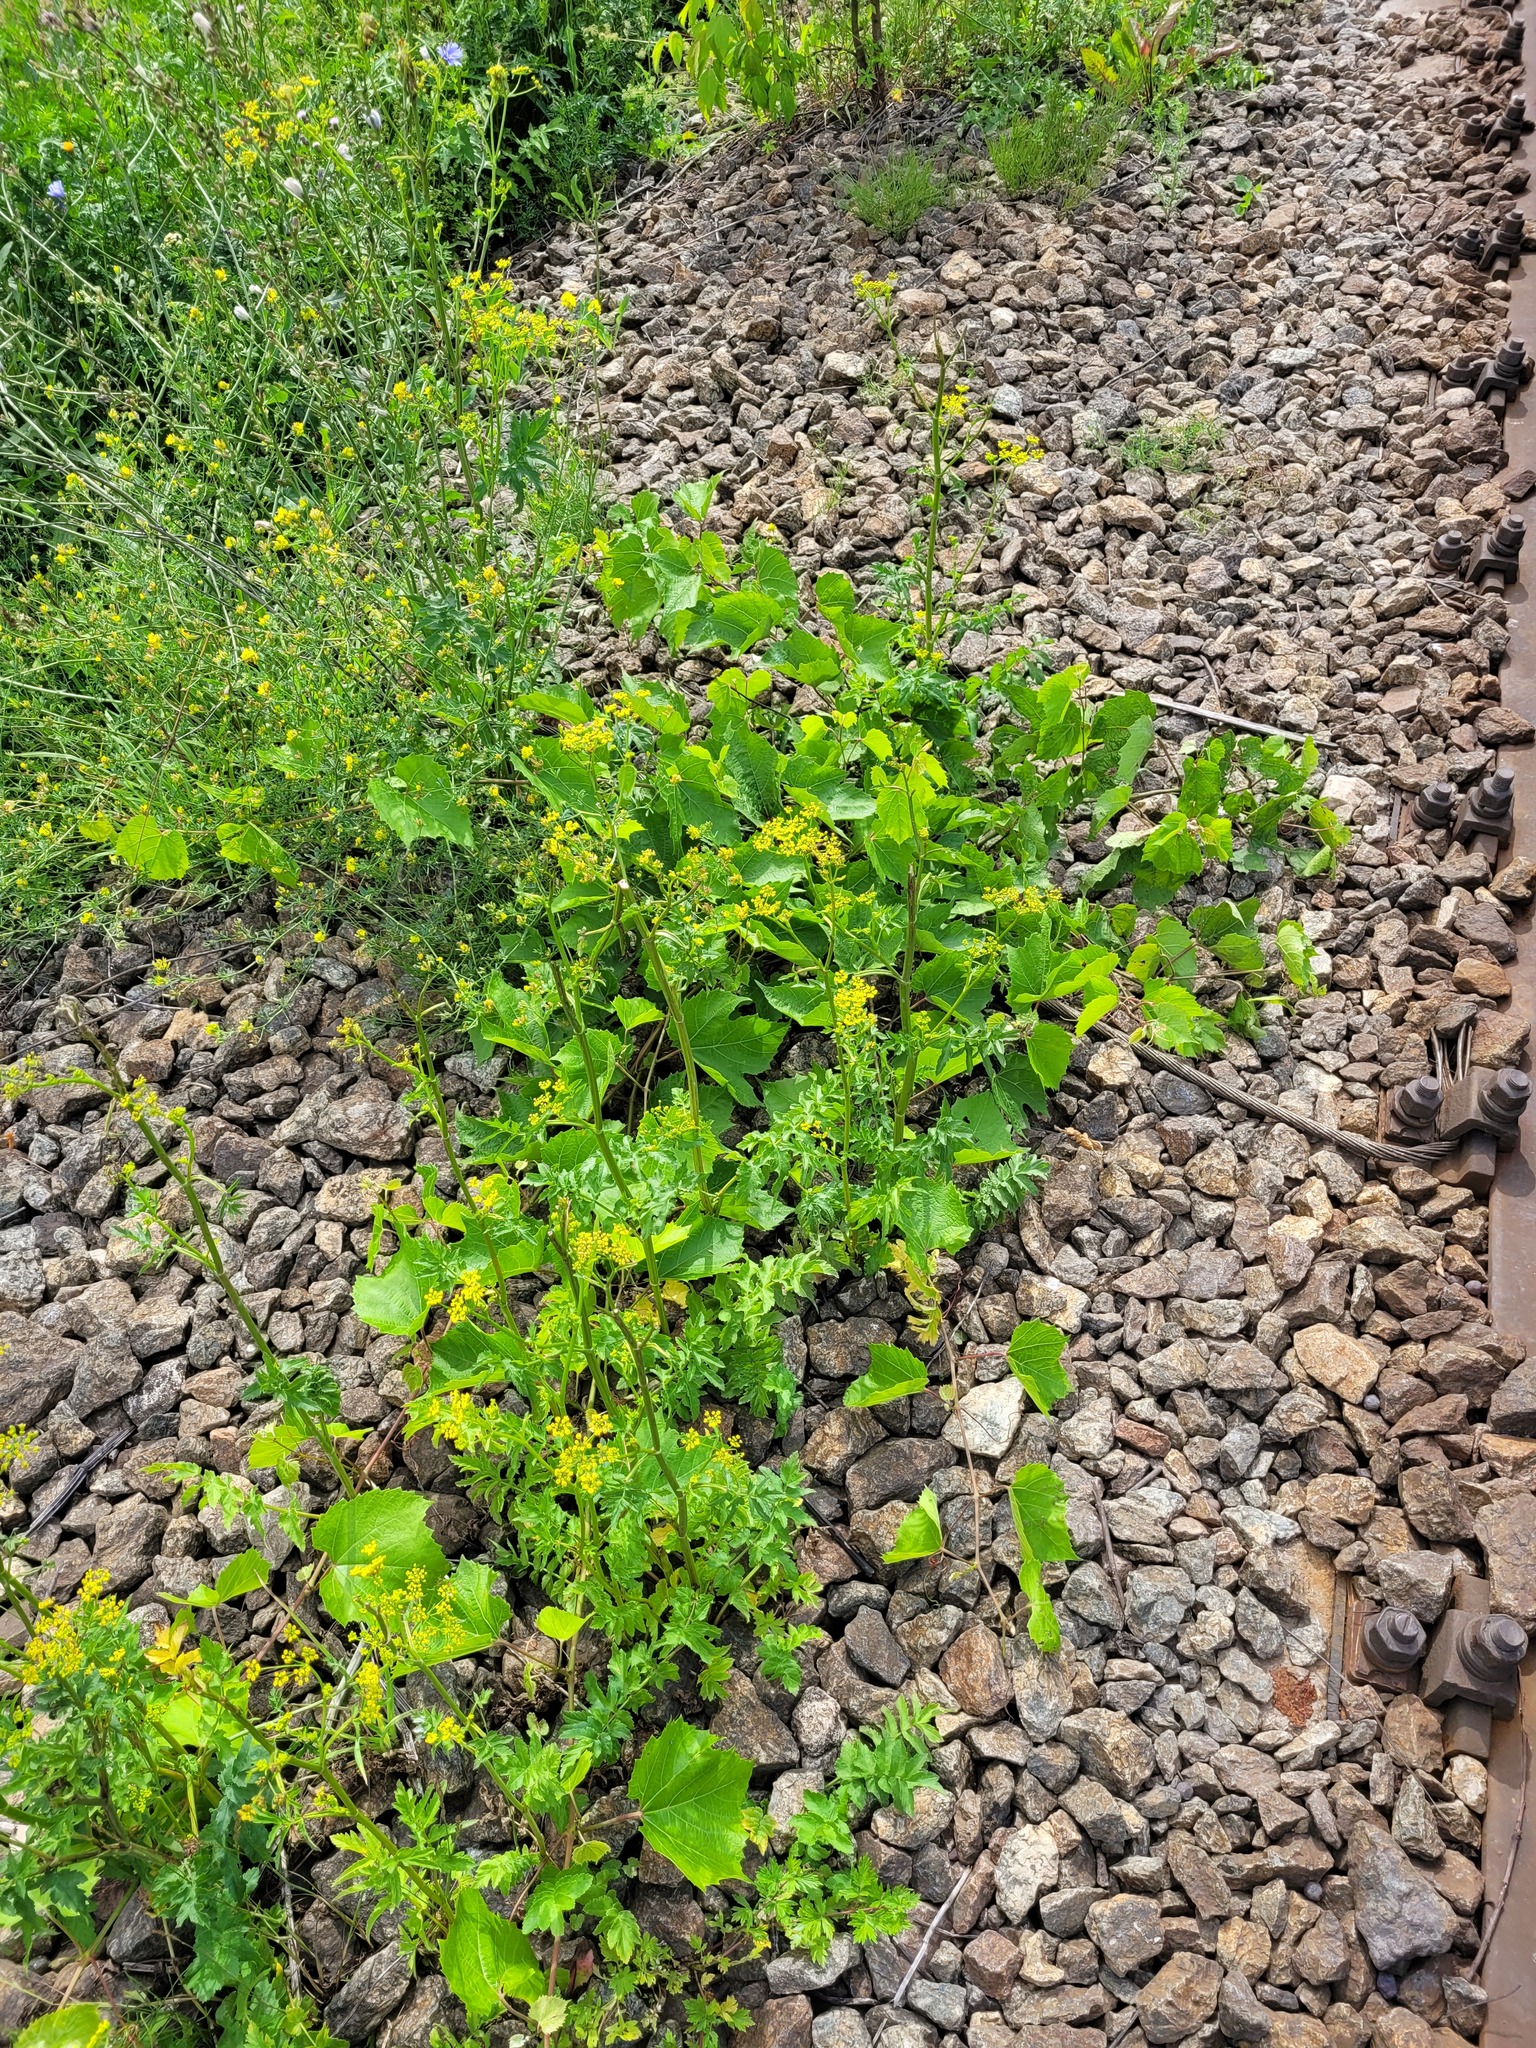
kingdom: Plantae
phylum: Tracheophyta
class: Magnoliopsida
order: Apiales
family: Apiaceae
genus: Pastinaca
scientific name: Pastinaca sativa
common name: Wild parsnip
